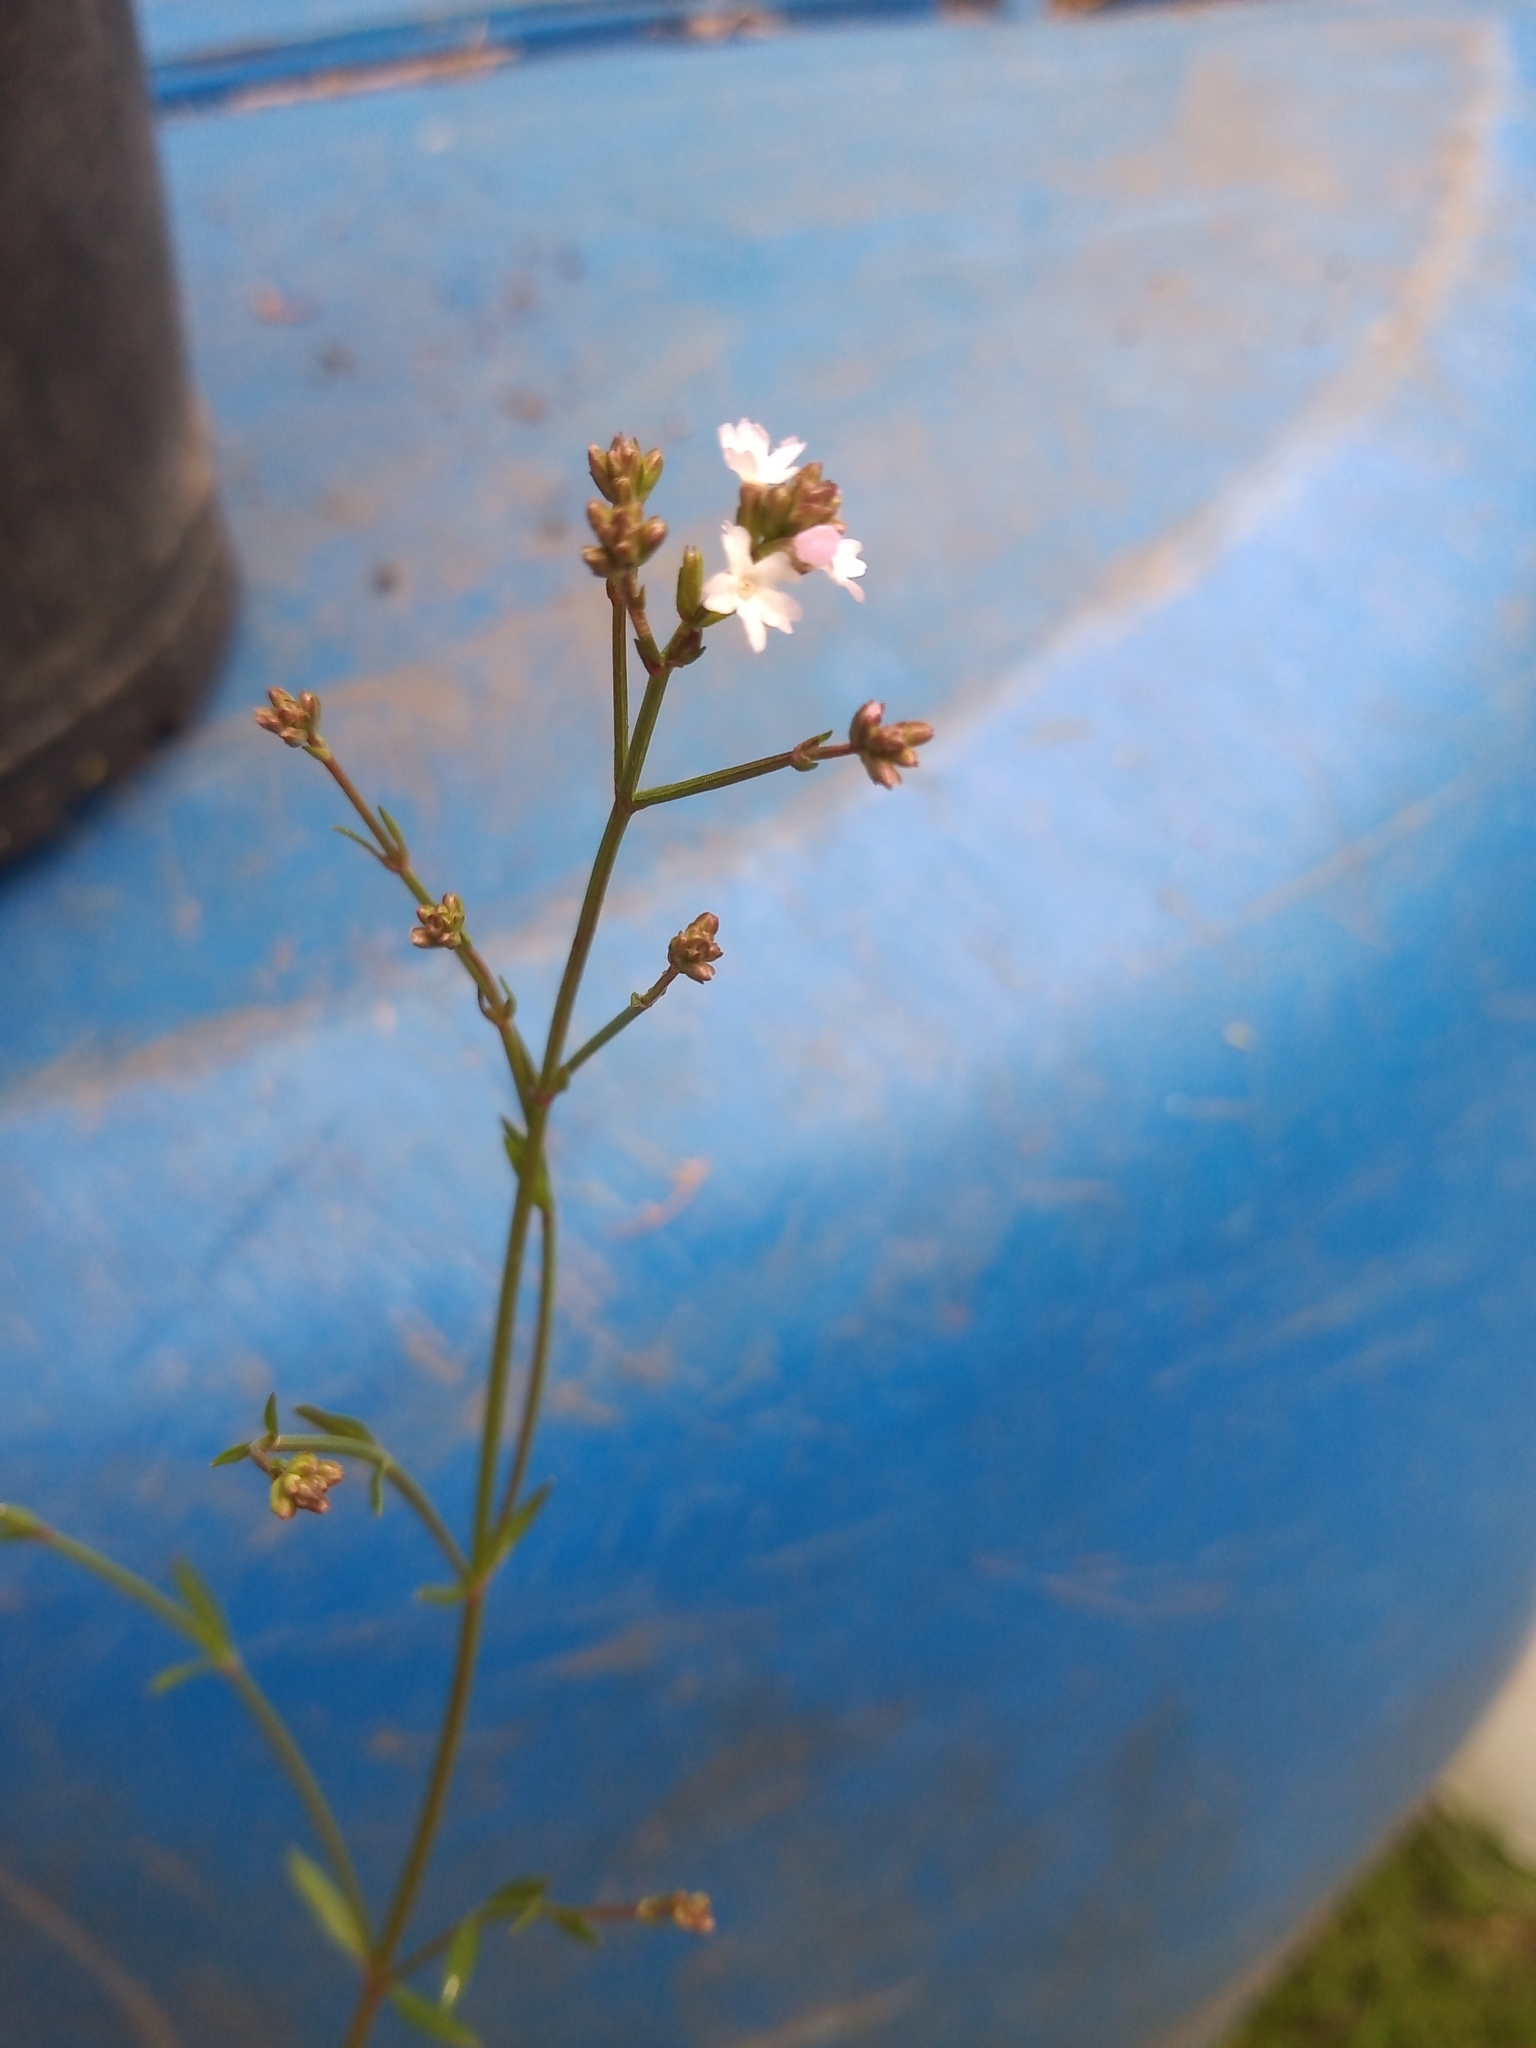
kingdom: Plantae
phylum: Tracheophyta
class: Magnoliopsida
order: Lamiales
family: Verbenaceae
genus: Verbena
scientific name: Verbena montevidensis
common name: Uruguayan vervain
